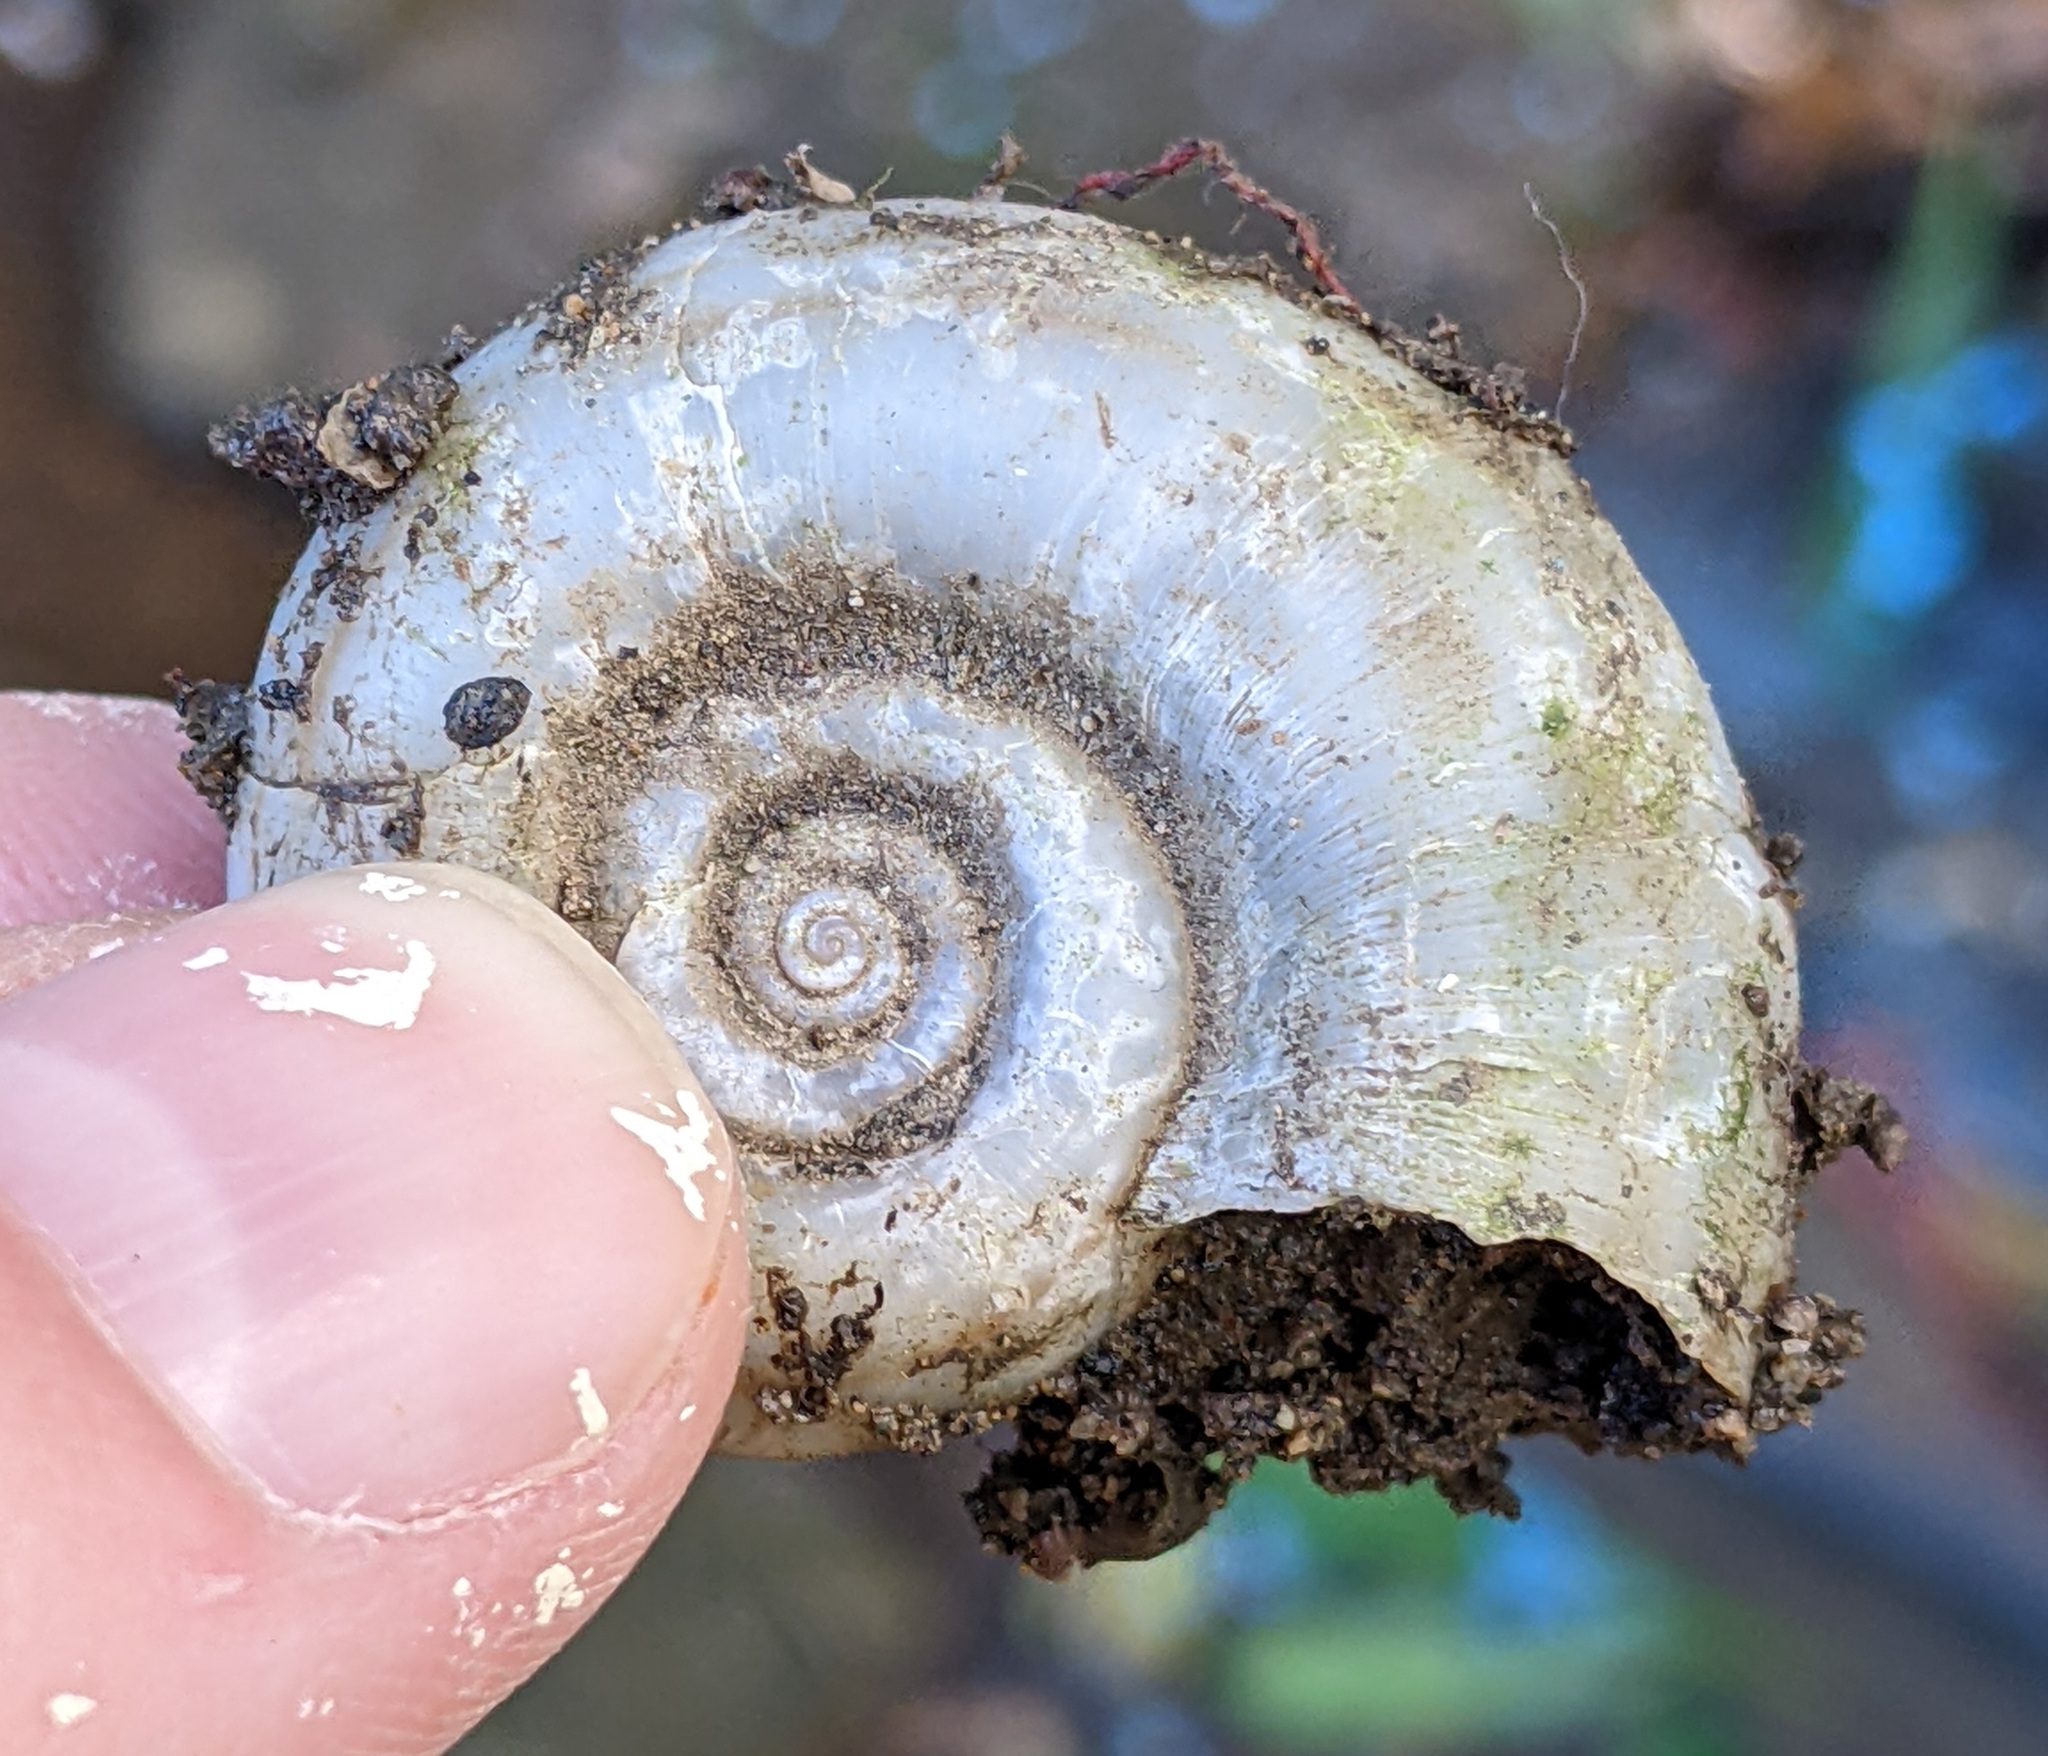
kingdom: Animalia
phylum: Mollusca
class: Gastropoda
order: Architaenioglossa
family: Ampullariidae
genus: Marisa
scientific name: Marisa cornuarietis
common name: Giant ramshorn snail
